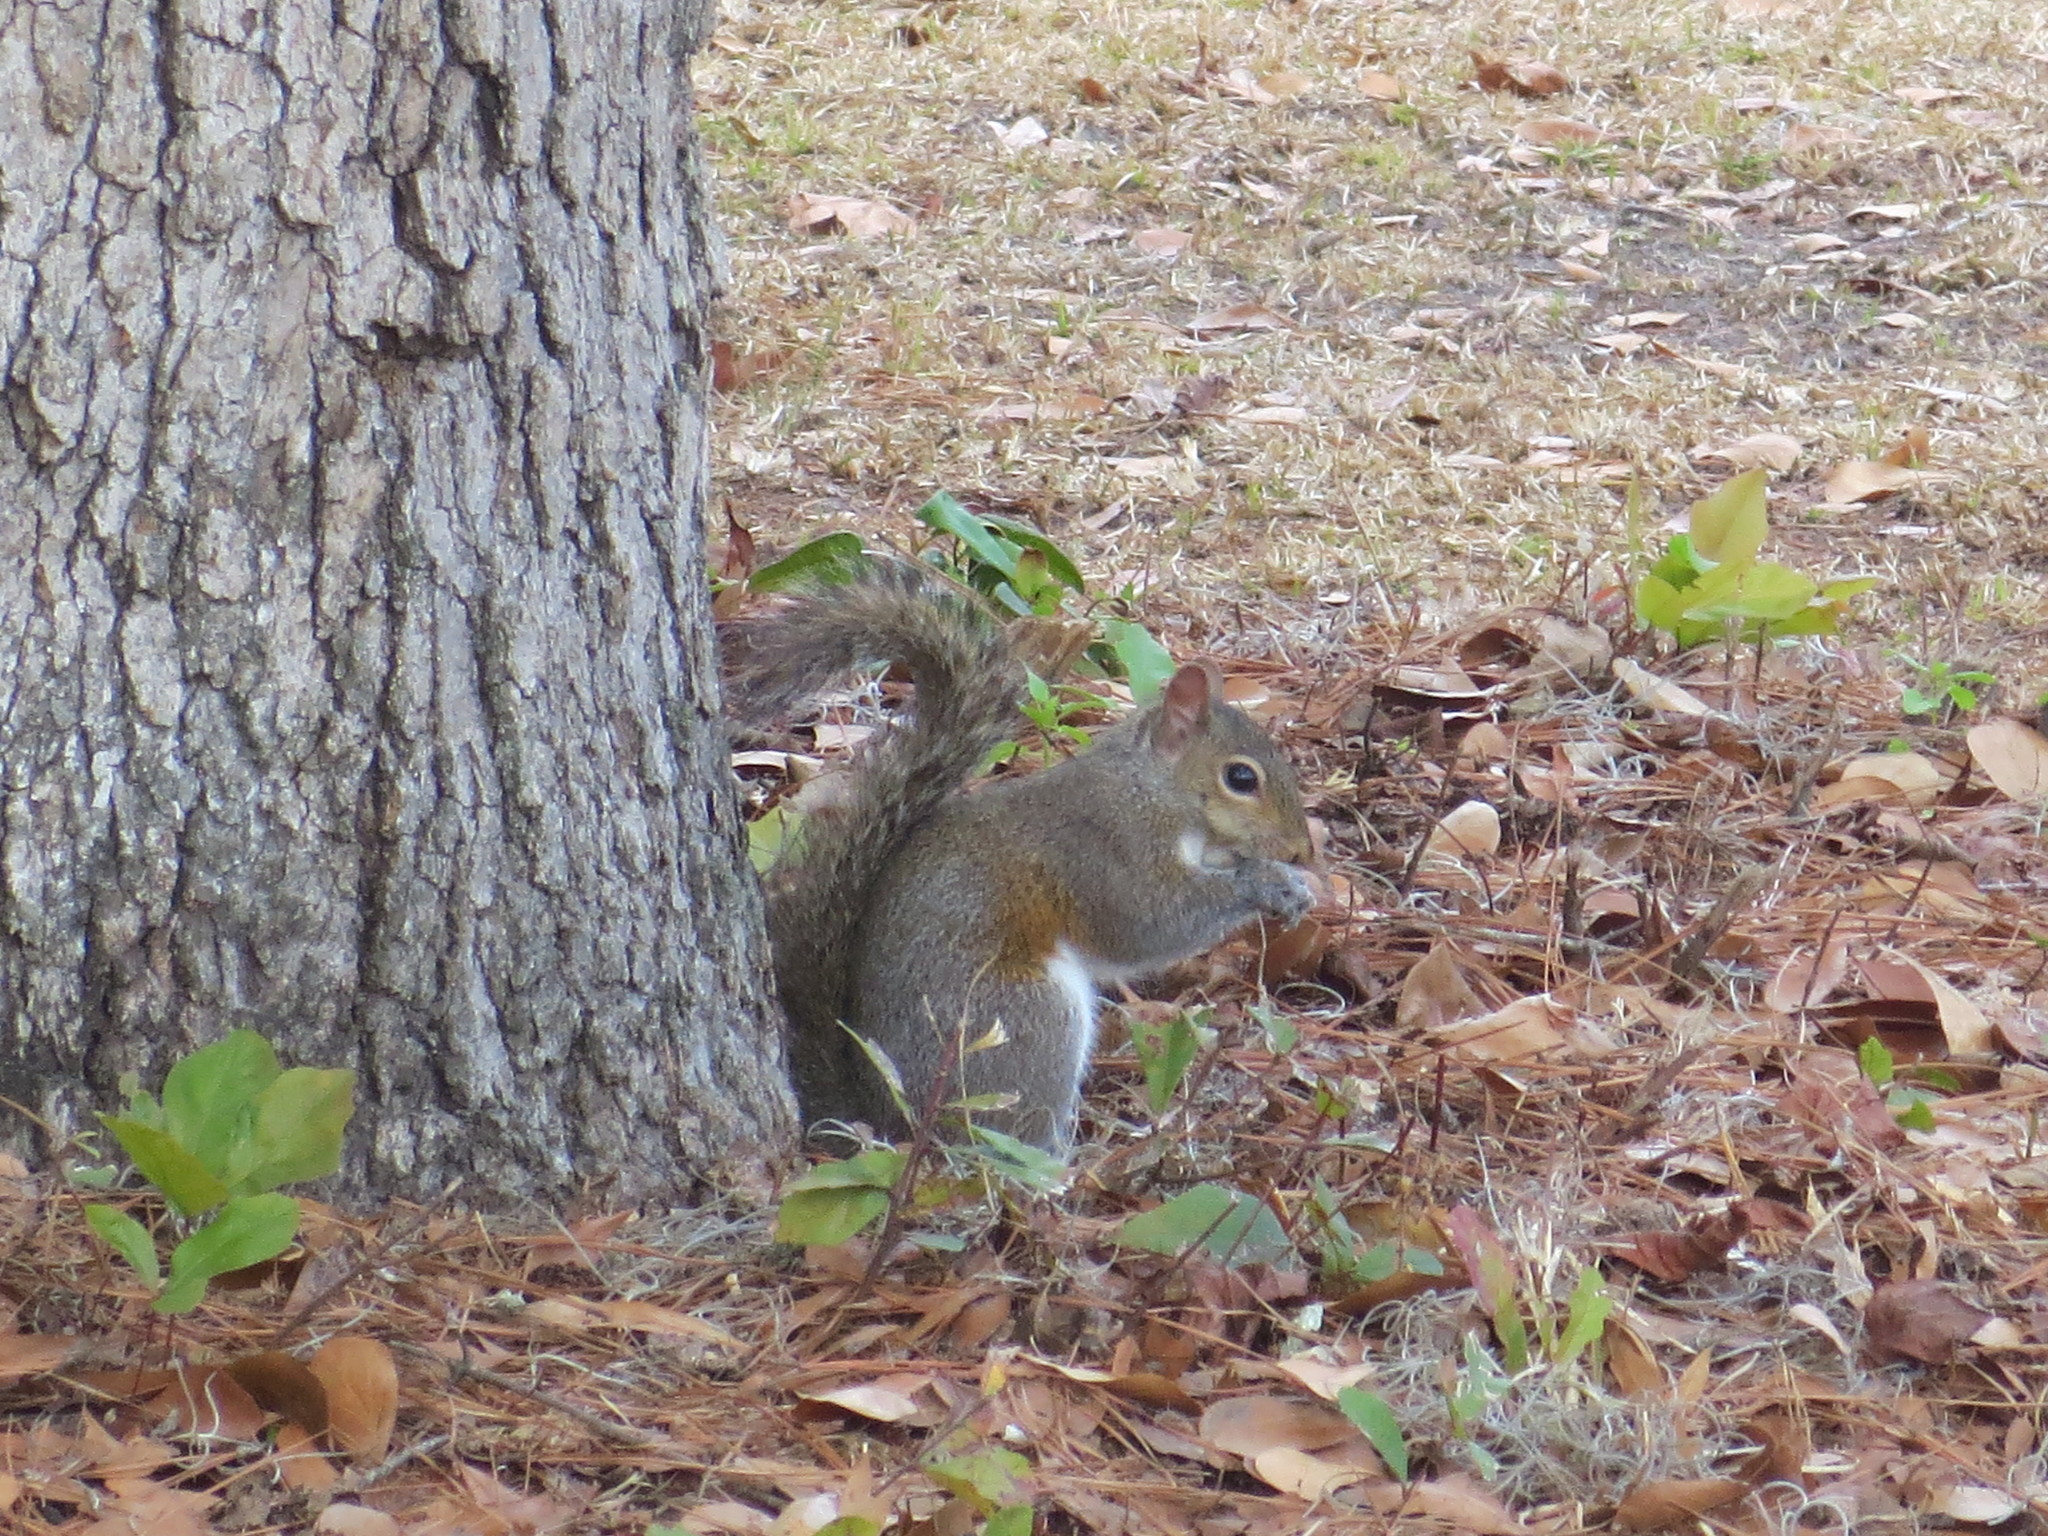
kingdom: Animalia
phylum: Chordata
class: Mammalia
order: Rodentia
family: Sciuridae
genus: Sciurus
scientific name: Sciurus carolinensis
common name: Eastern gray squirrel
